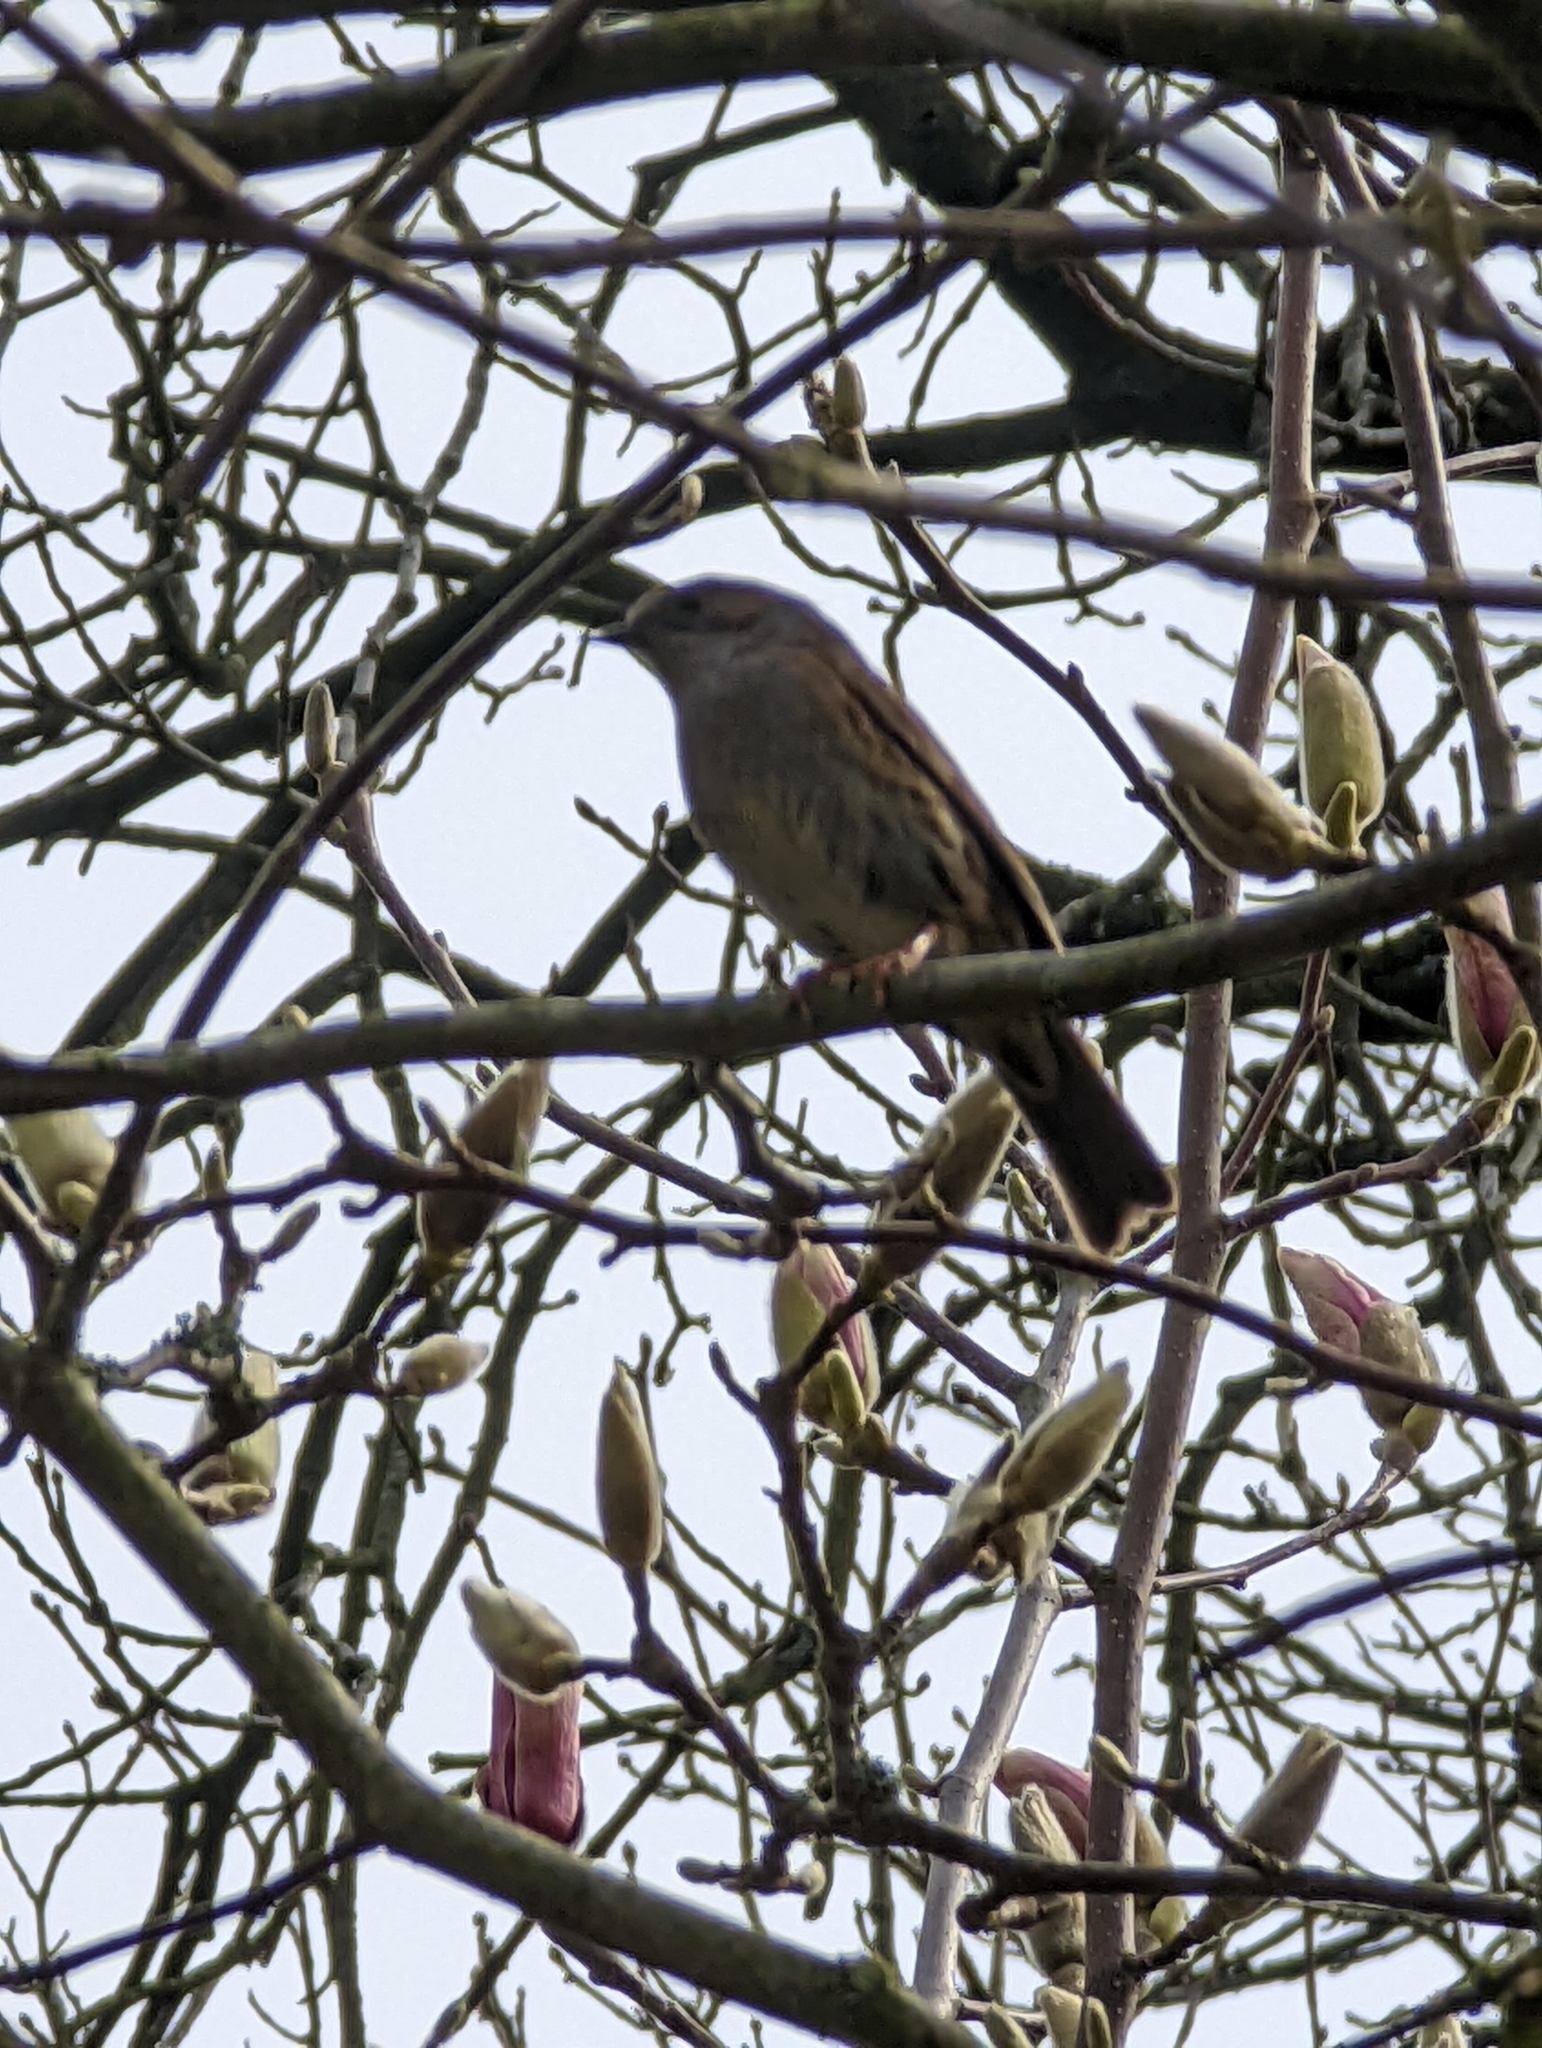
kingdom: Animalia
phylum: Chordata
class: Aves
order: Passeriformes
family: Prunellidae
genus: Prunella
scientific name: Prunella modularis
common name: Dunnock
